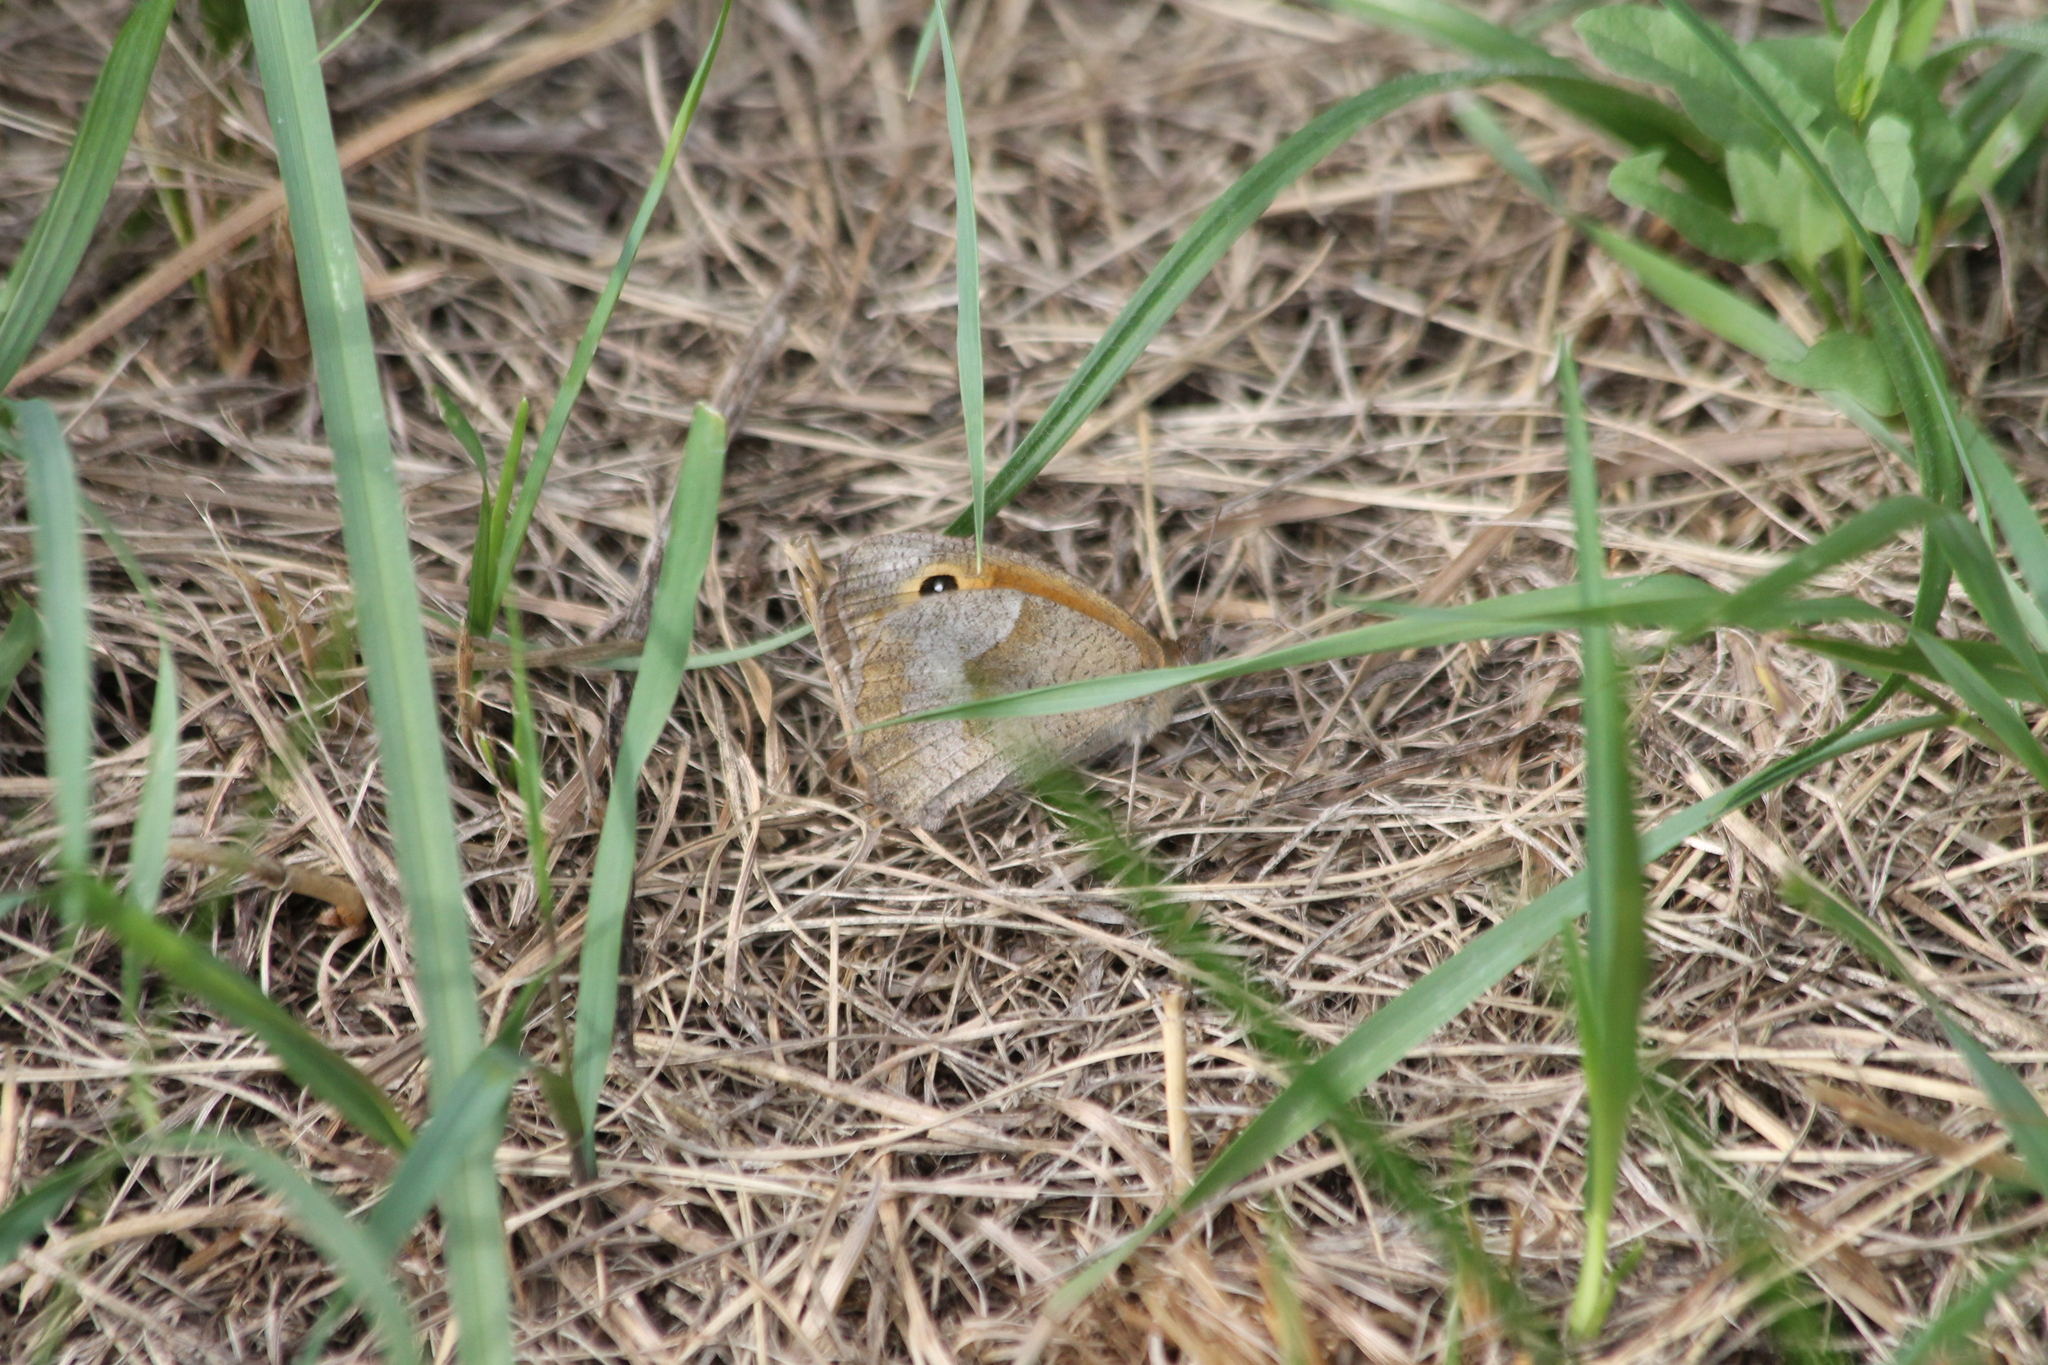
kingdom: Animalia
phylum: Arthropoda
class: Insecta
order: Lepidoptera
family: Nymphalidae
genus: Maniola
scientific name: Maniola jurtina
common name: Meadow brown
